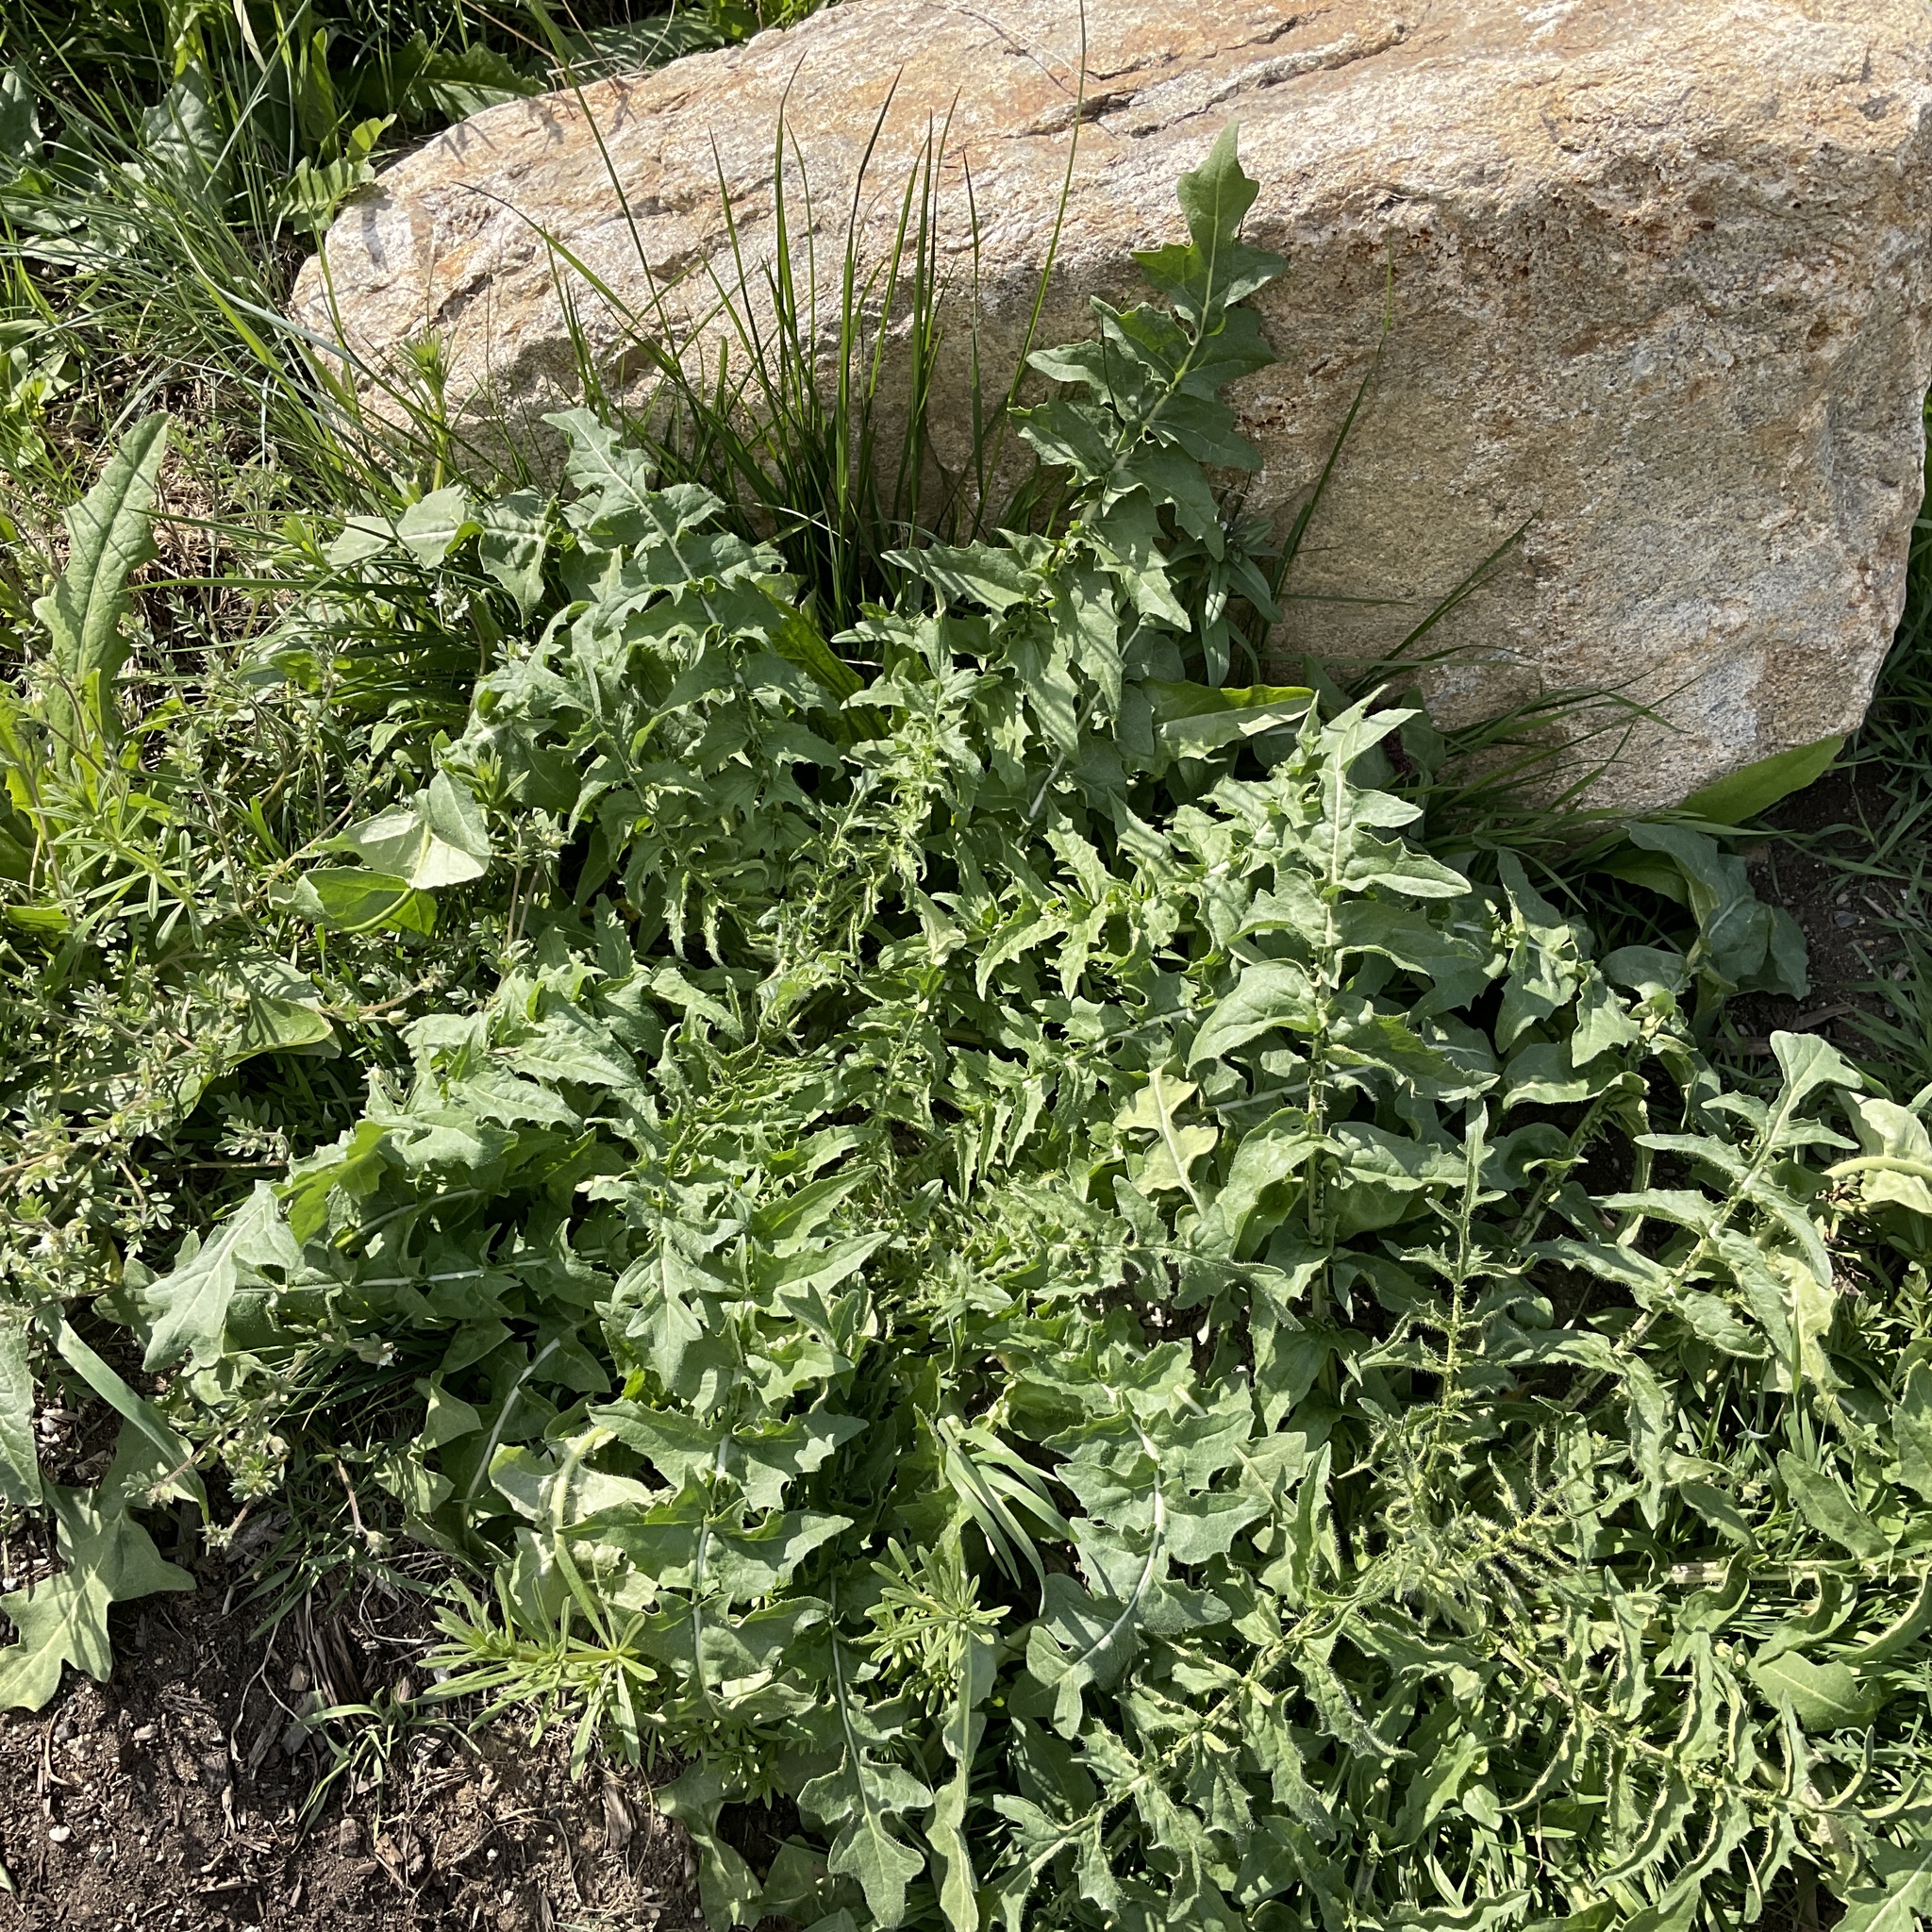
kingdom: Plantae
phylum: Tracheophyta
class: Magnoliopsida
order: Brassicales
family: Brassicaceae
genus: Sisymbrium
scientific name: Sisymbrium altissimum
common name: Tall rocket
